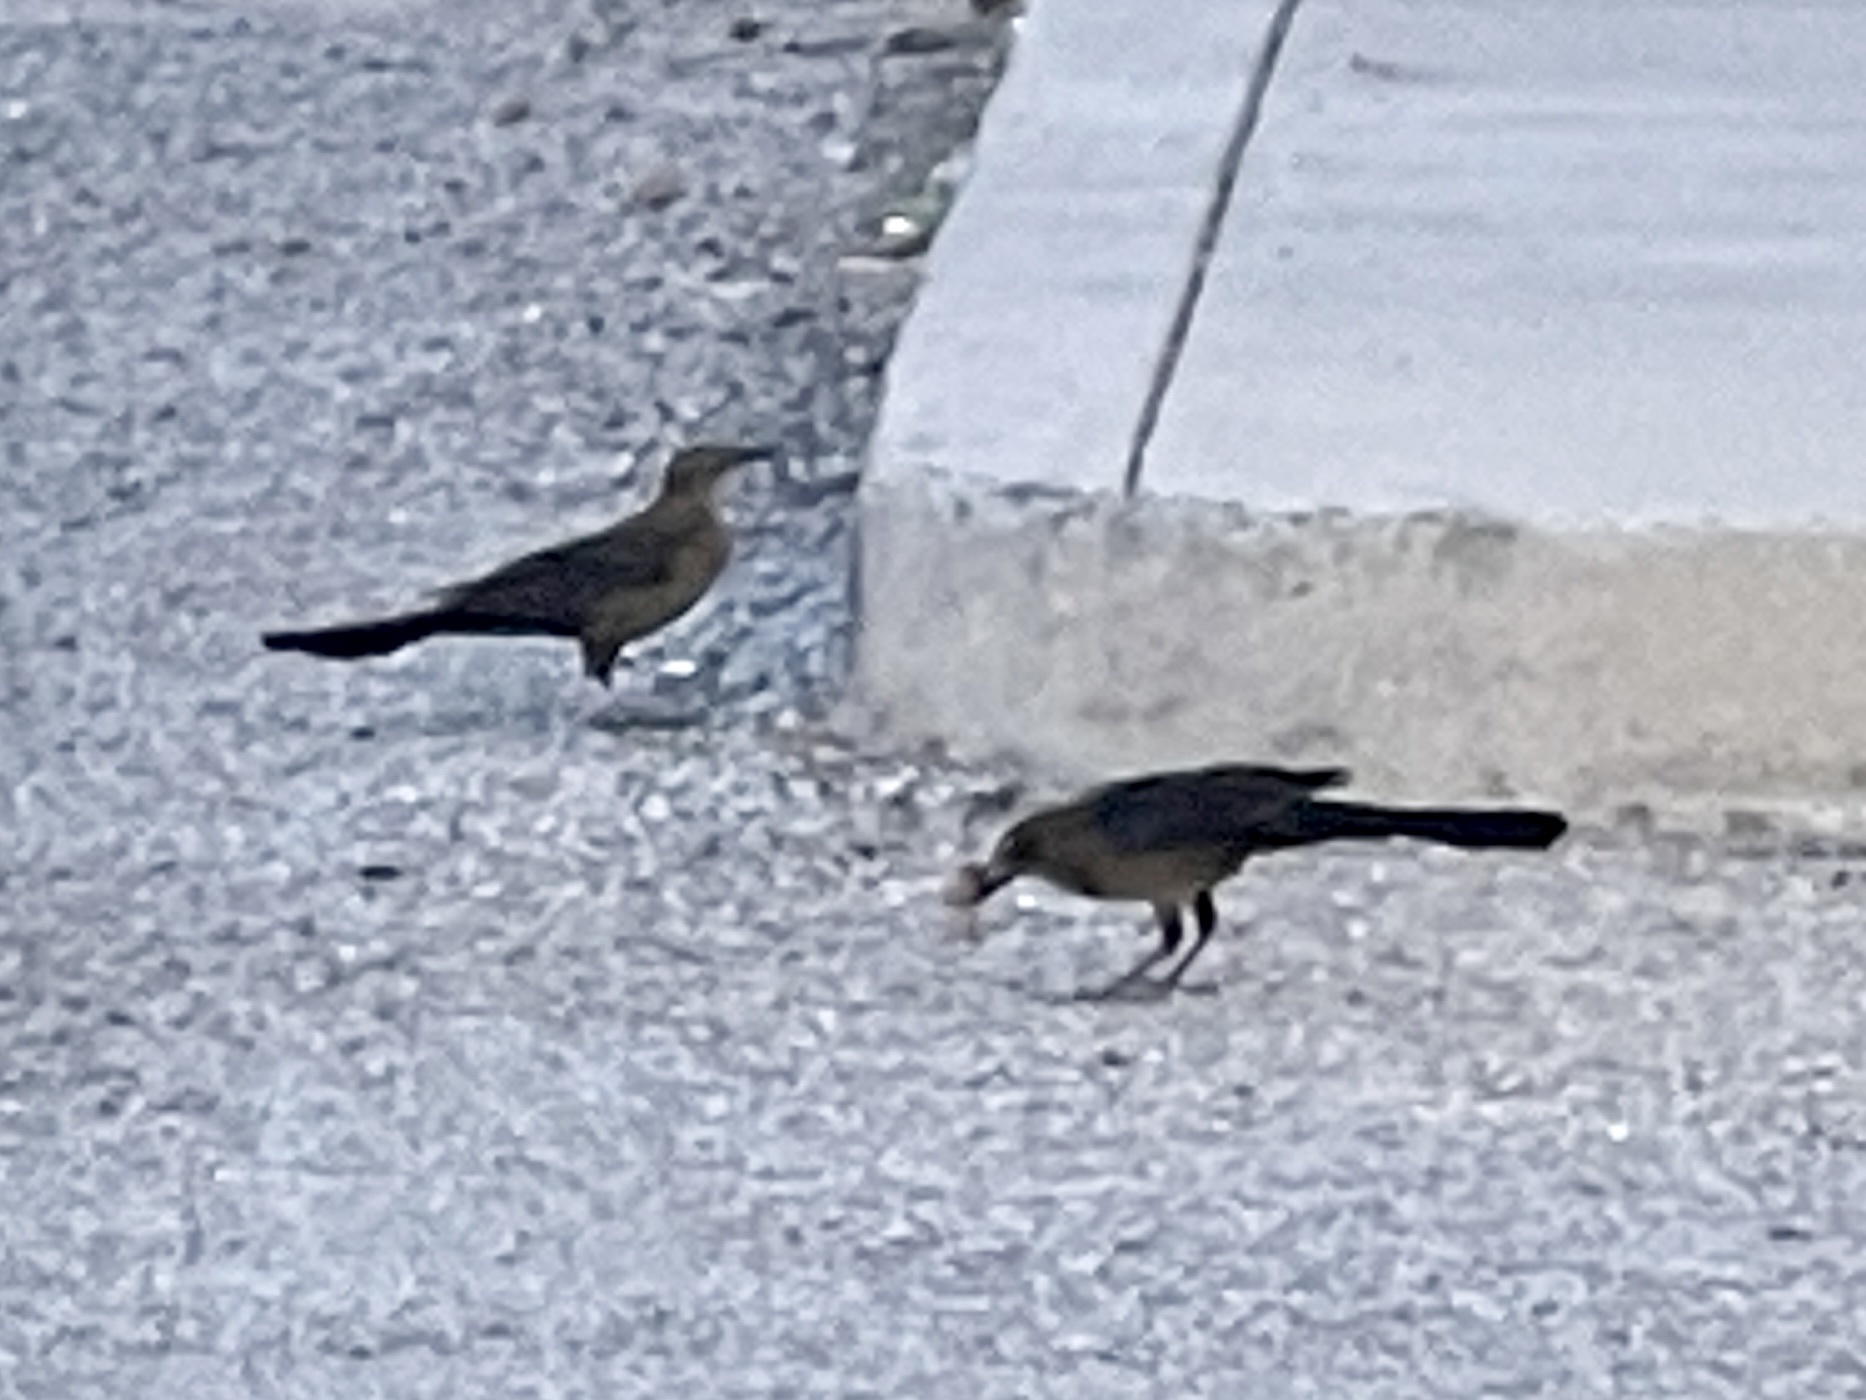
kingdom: Animalia
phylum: Chordata
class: Aves
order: Passeriformes
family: Icteridae
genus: Quiscalus
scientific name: Quiscalus mexicanus
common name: Great-tailed grackle
